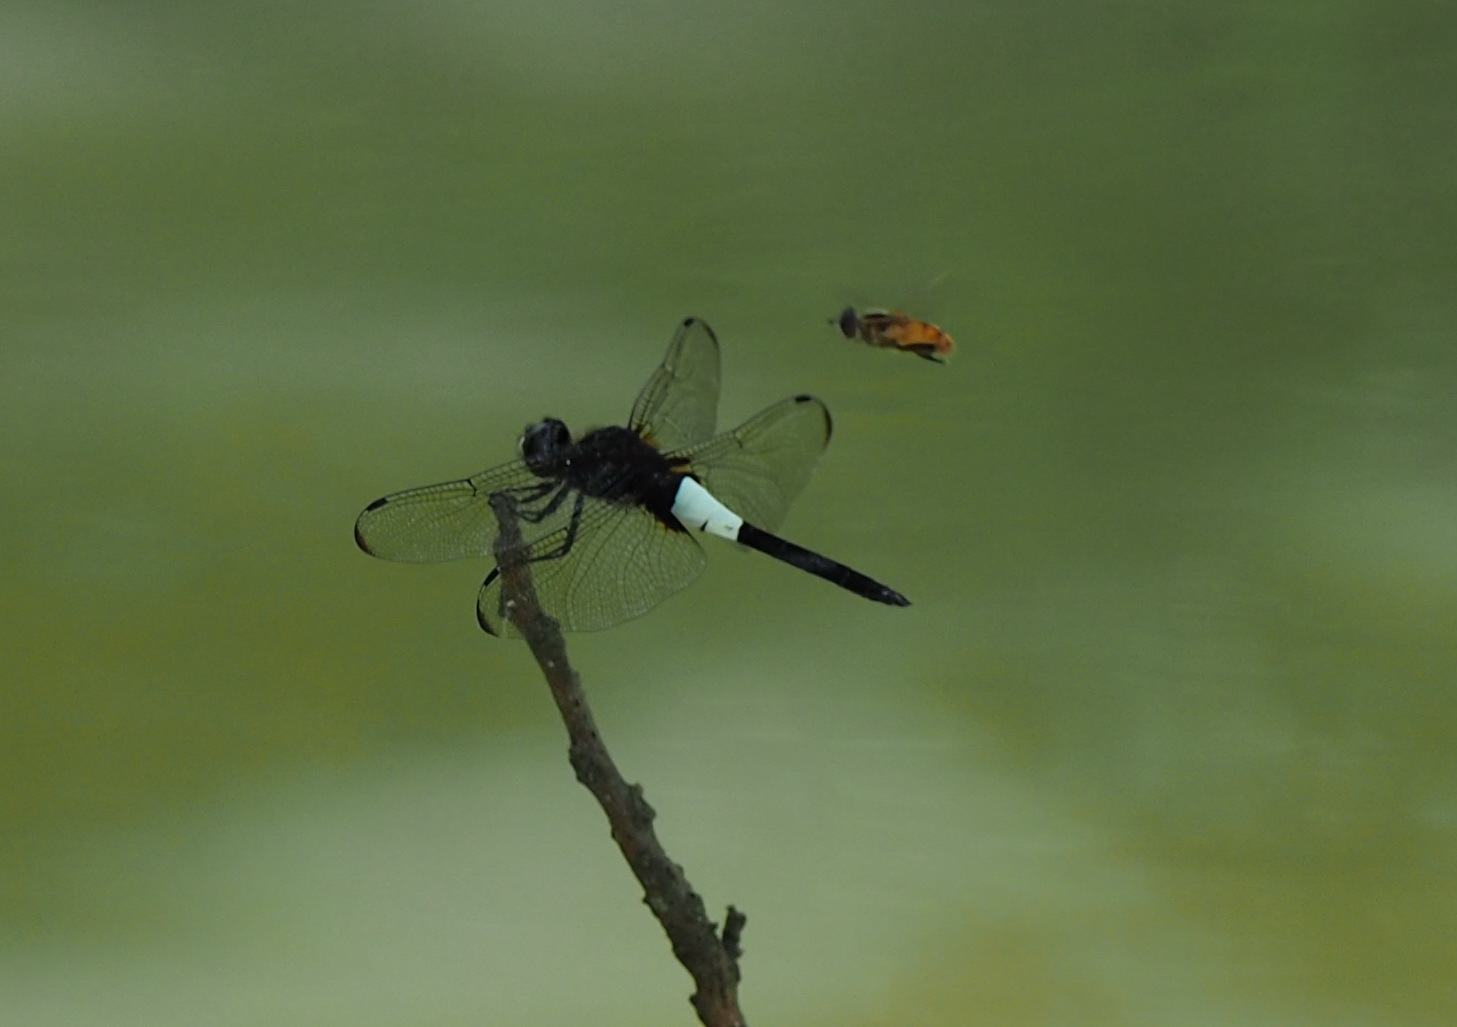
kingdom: Animalia
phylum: Arthropoda
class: Insecta
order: Odonata
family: Libellulidae
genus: Pseudothemis
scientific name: Pseudothemis zonata
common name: Pied skimmer
